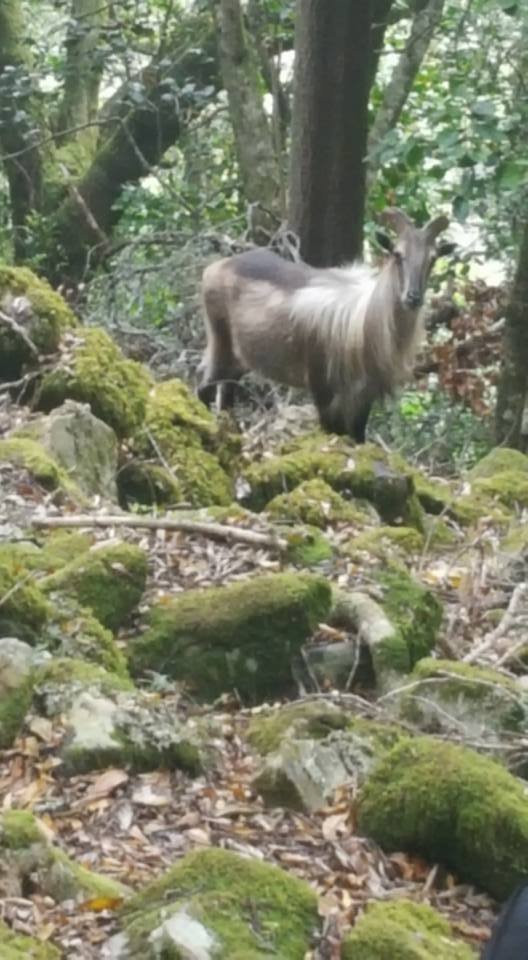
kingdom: Animalia
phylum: Chordata
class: Mammalia
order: Artiodactyla
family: Bovidae
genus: Hemitragus
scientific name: Hemitragus jemlahicus
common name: Himalayan tahr
